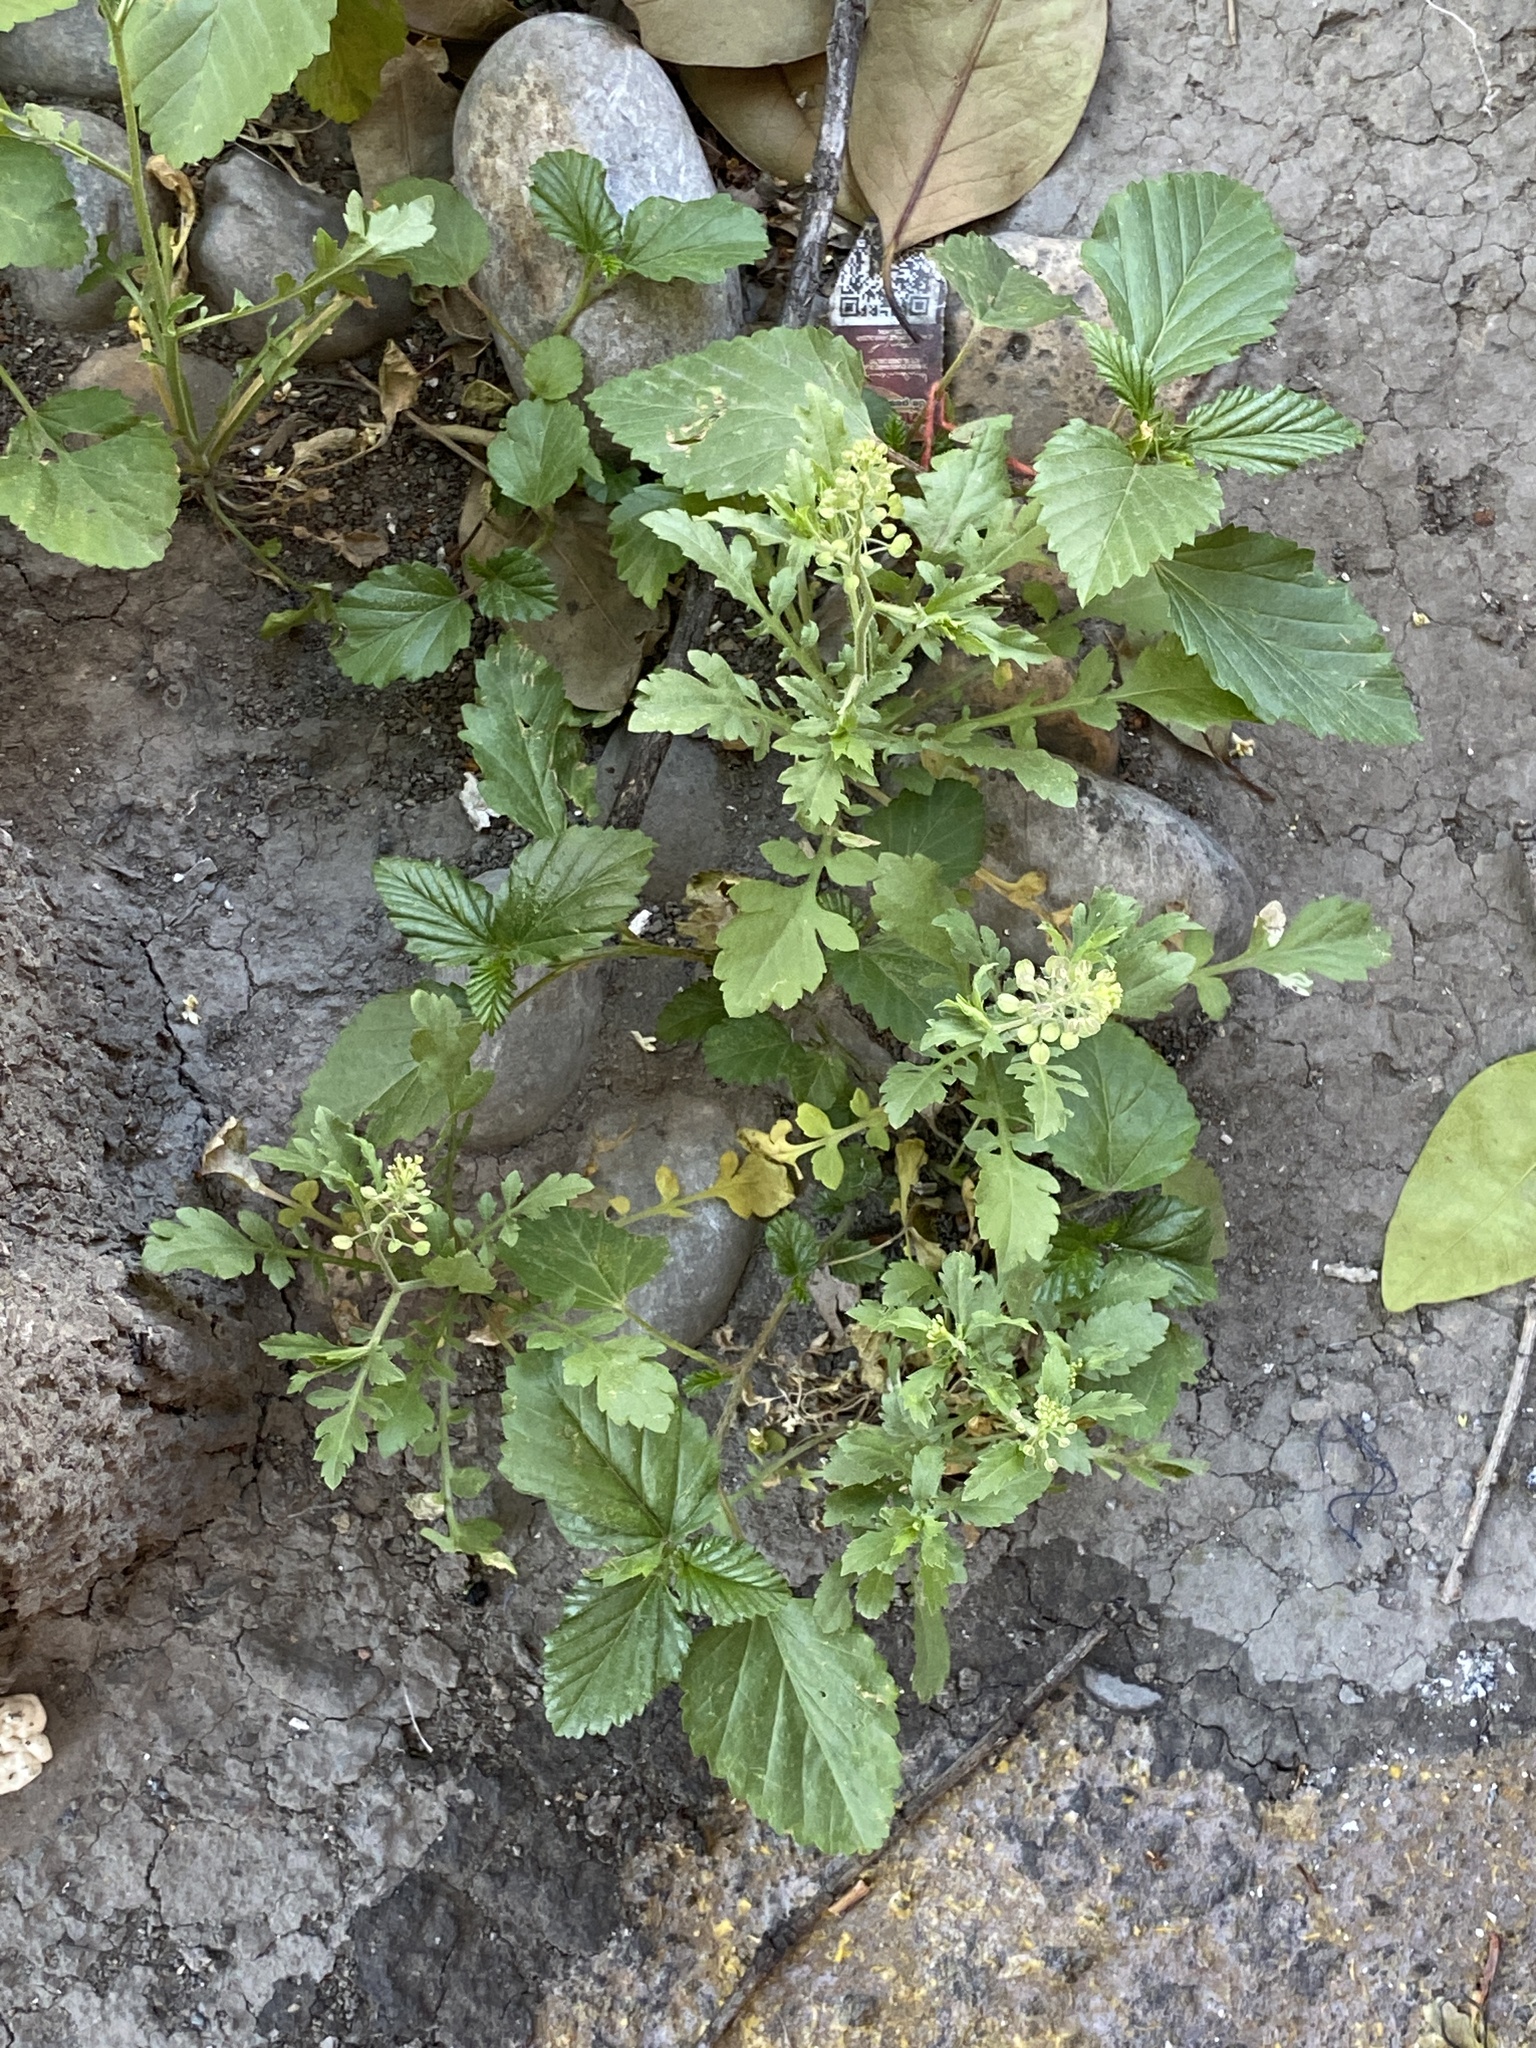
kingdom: Plantae
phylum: Tracheophyta
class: Magnoliopsida
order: Malvales
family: Malvaceae
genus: Malvastrum
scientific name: Malvastrum coromandelianum
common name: Threelobe false mallow
